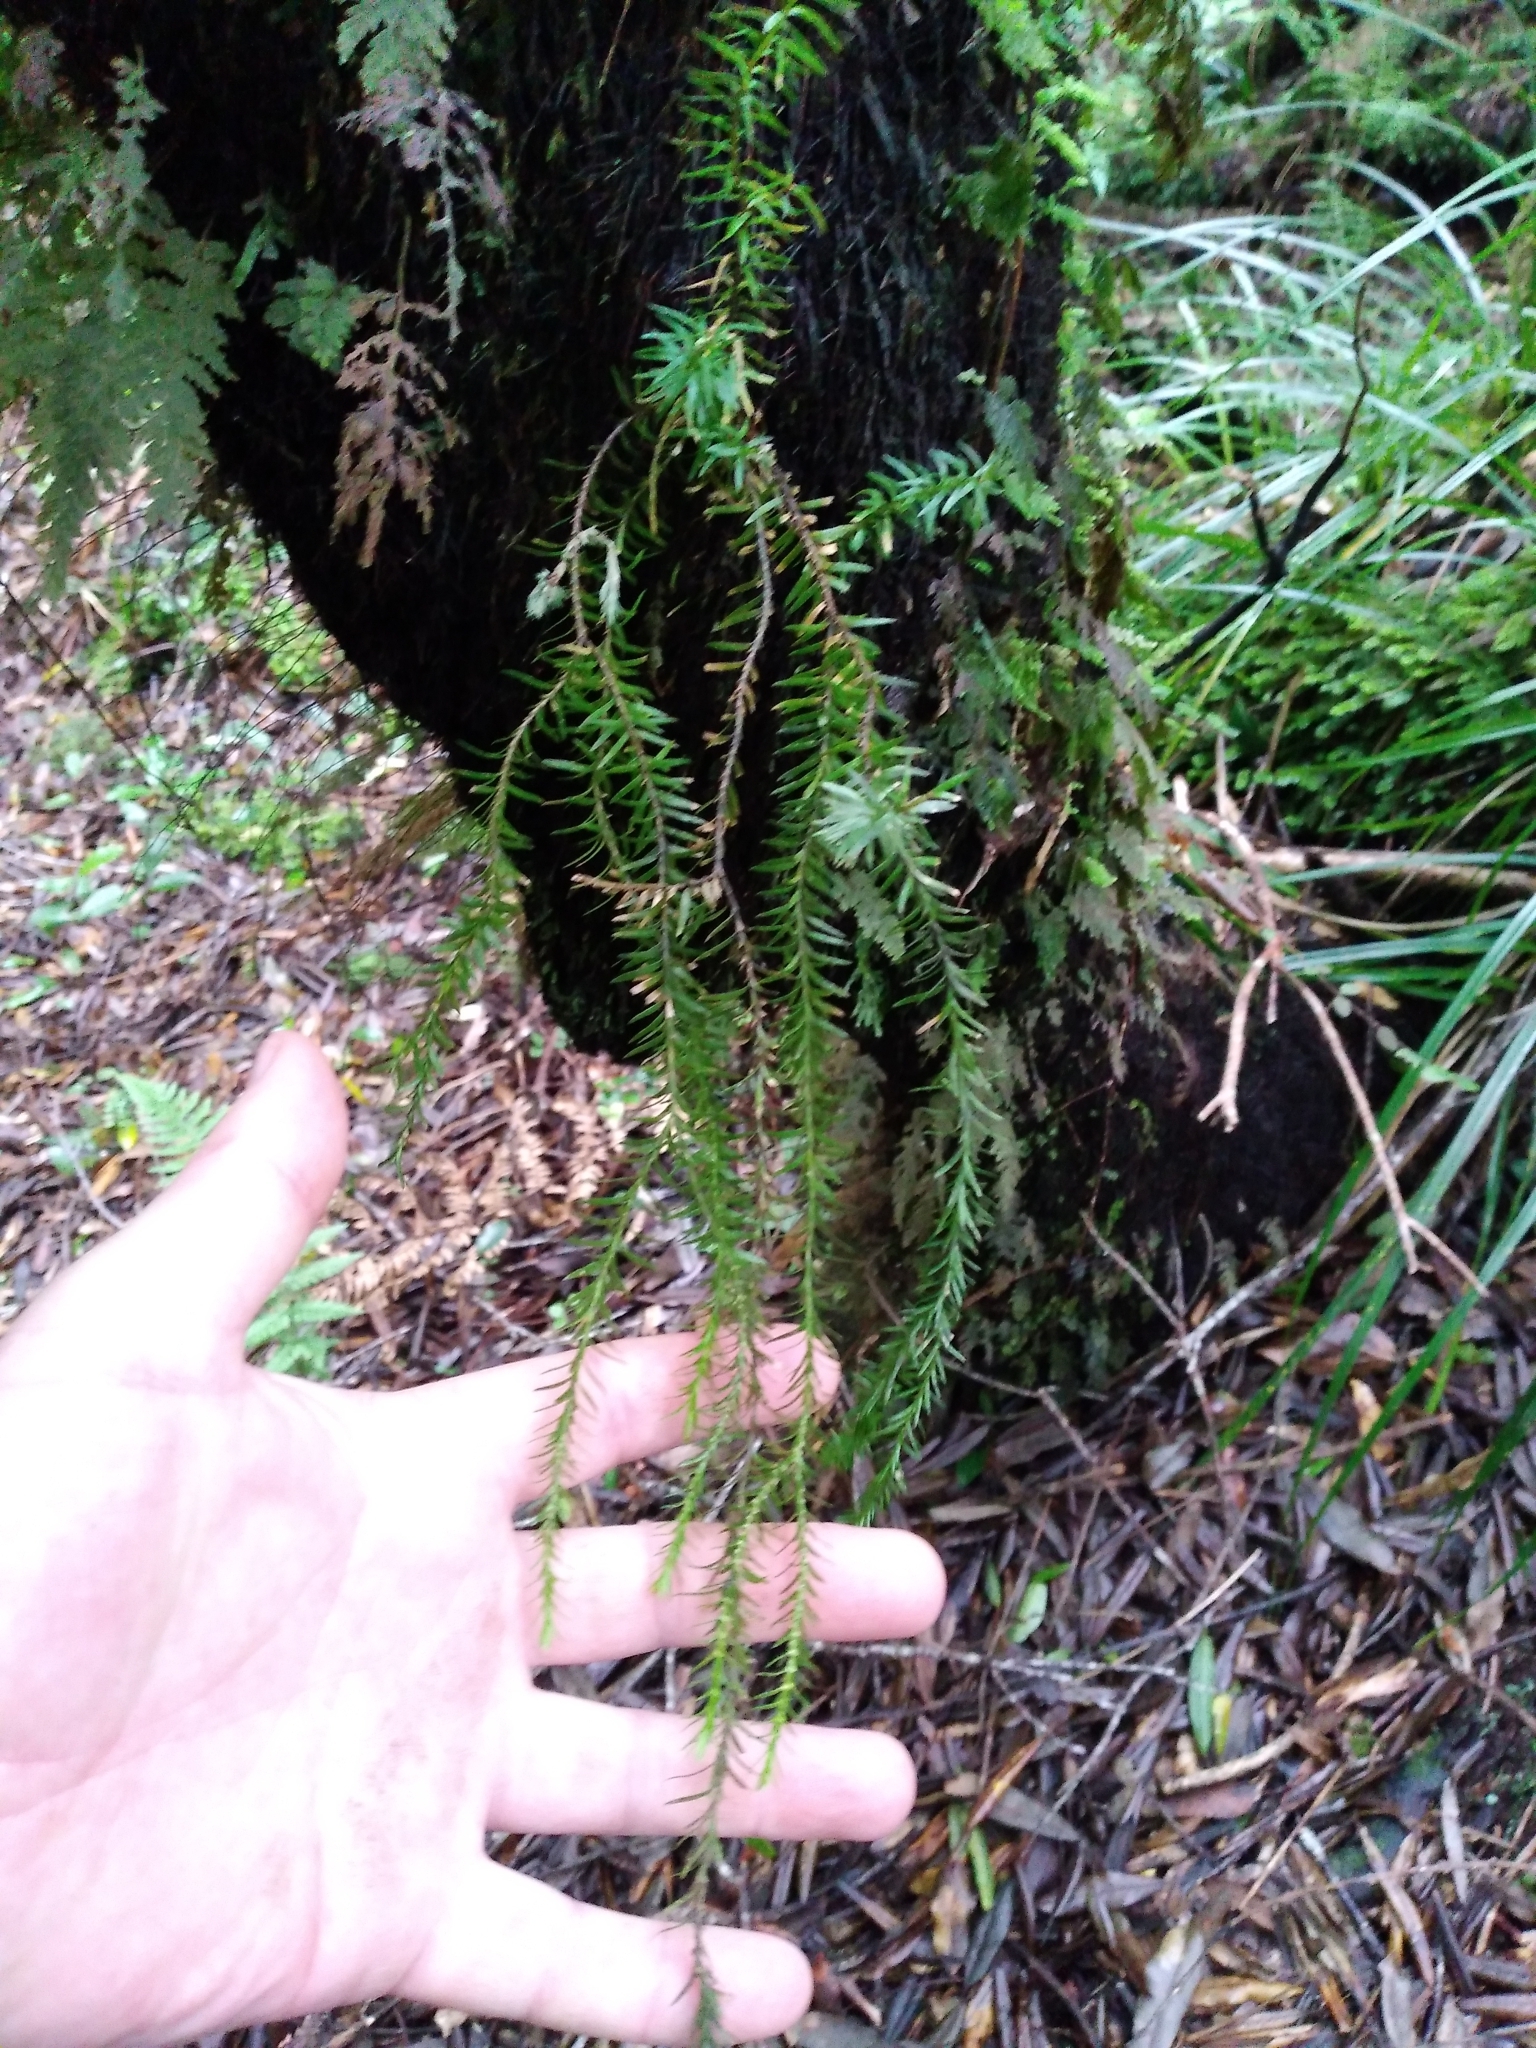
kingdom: Plantae
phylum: Tracheophyta
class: Lycopodiopsida
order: Lycopodiales
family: Lycopodiaceae
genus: Phlegmariurus
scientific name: Phlegmariurus varius
